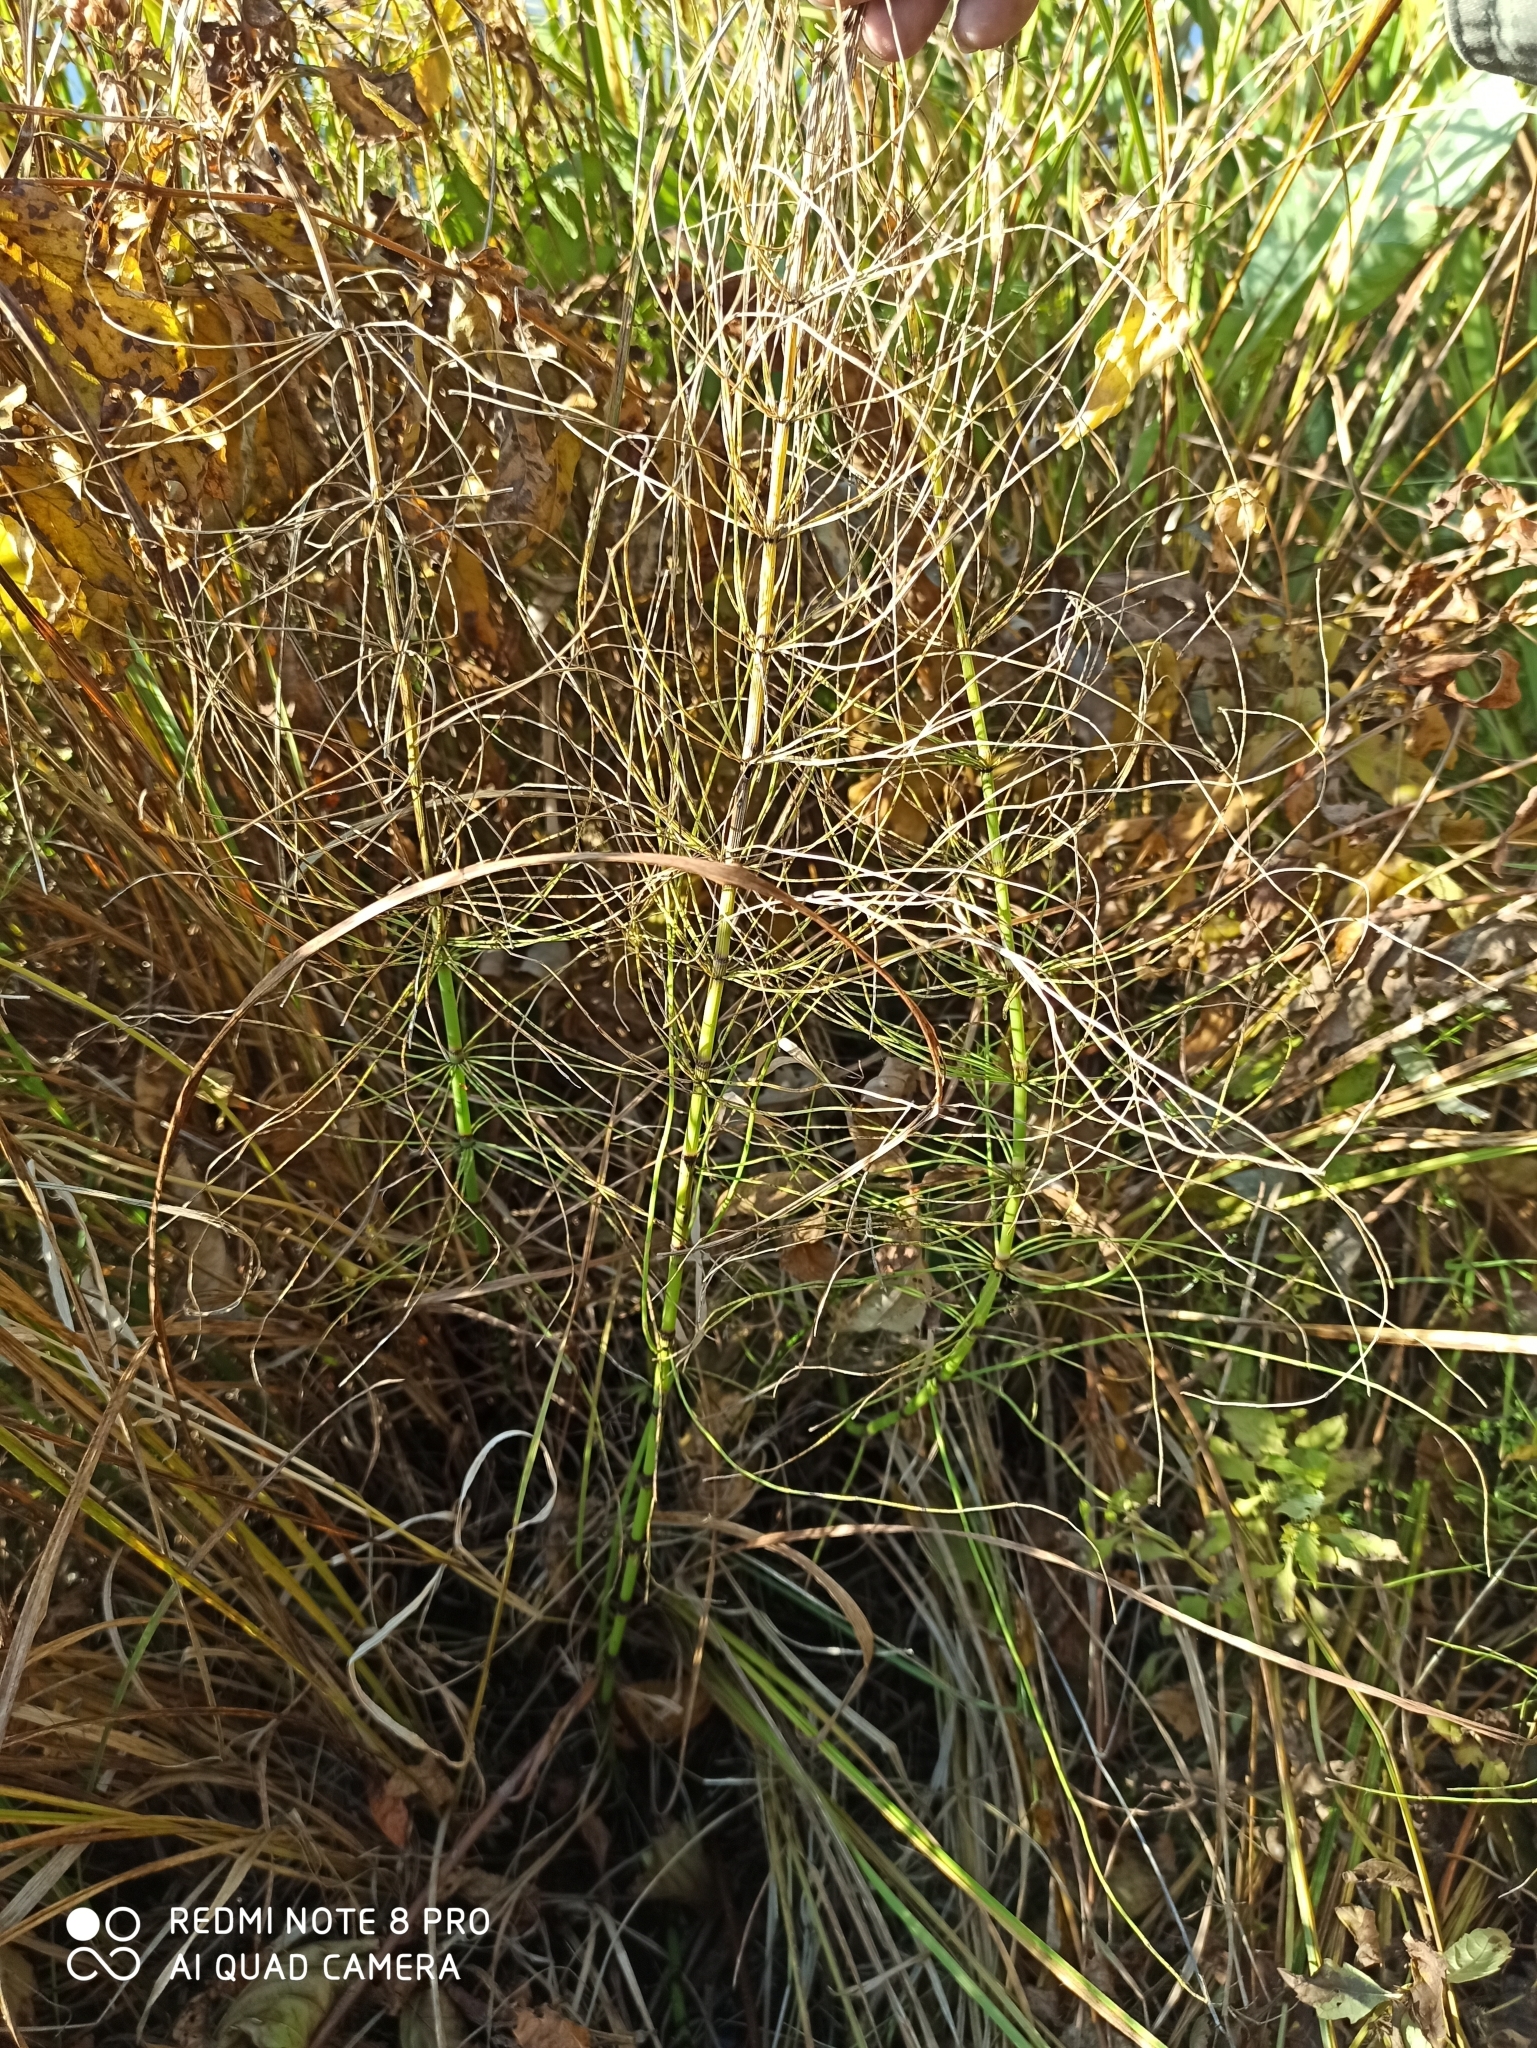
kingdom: Plantae
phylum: Tracheophyta
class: Polypodiopsida
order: Equisetales
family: Equisetaceae
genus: Equisetum
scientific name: Equisetum fluviatile
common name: Water horsetail
